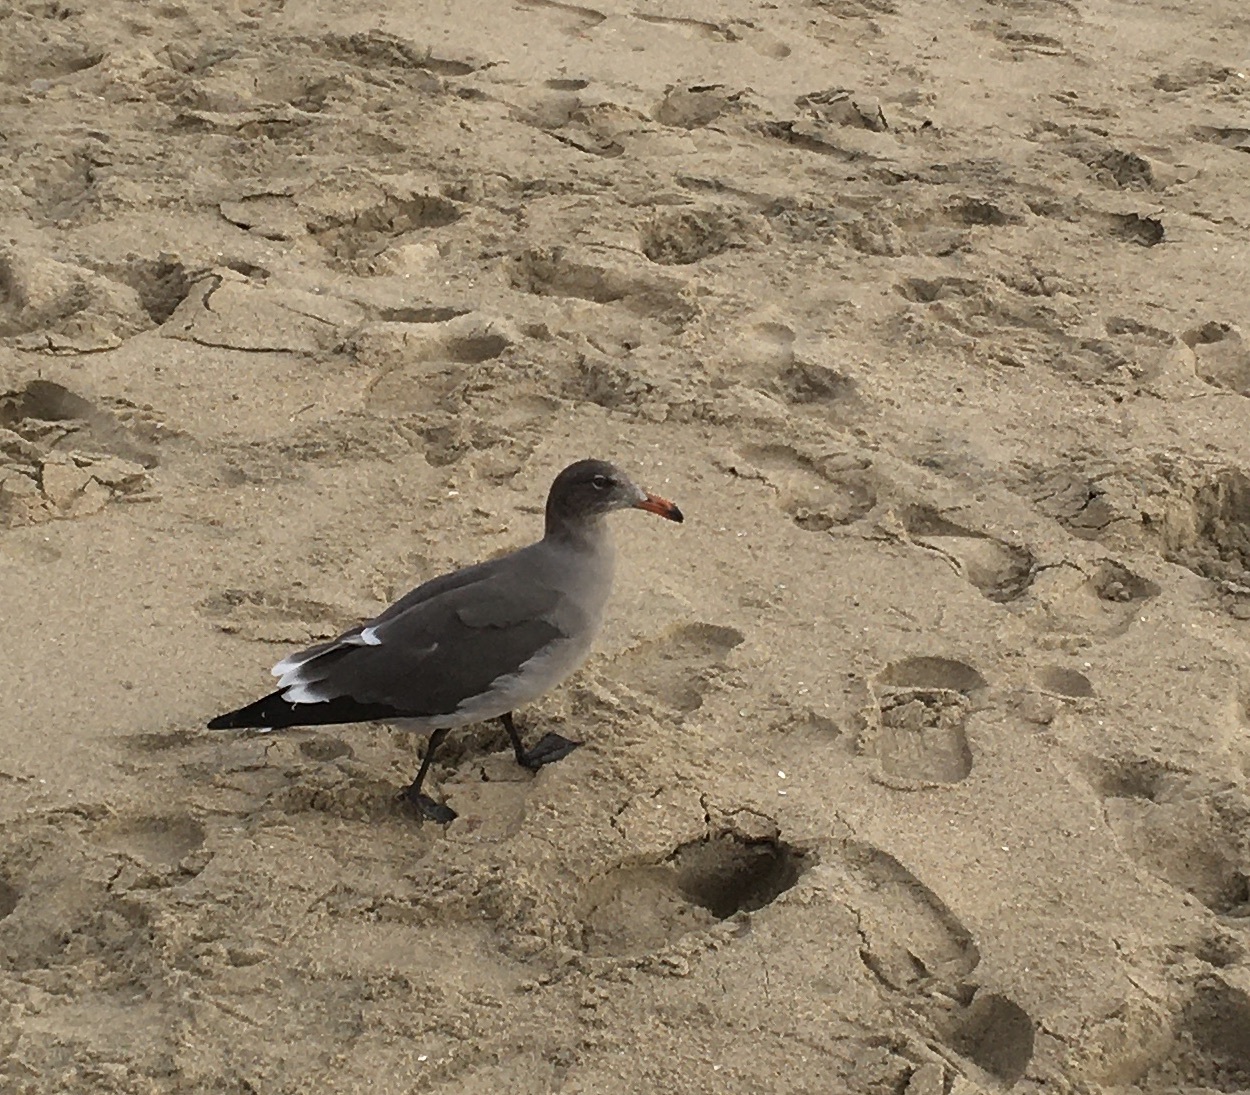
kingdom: Animalia
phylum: Chordata
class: Aves
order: Charadriiformes
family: Laridae
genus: Larus
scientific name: Larus heermanni
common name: Heermann's gull
